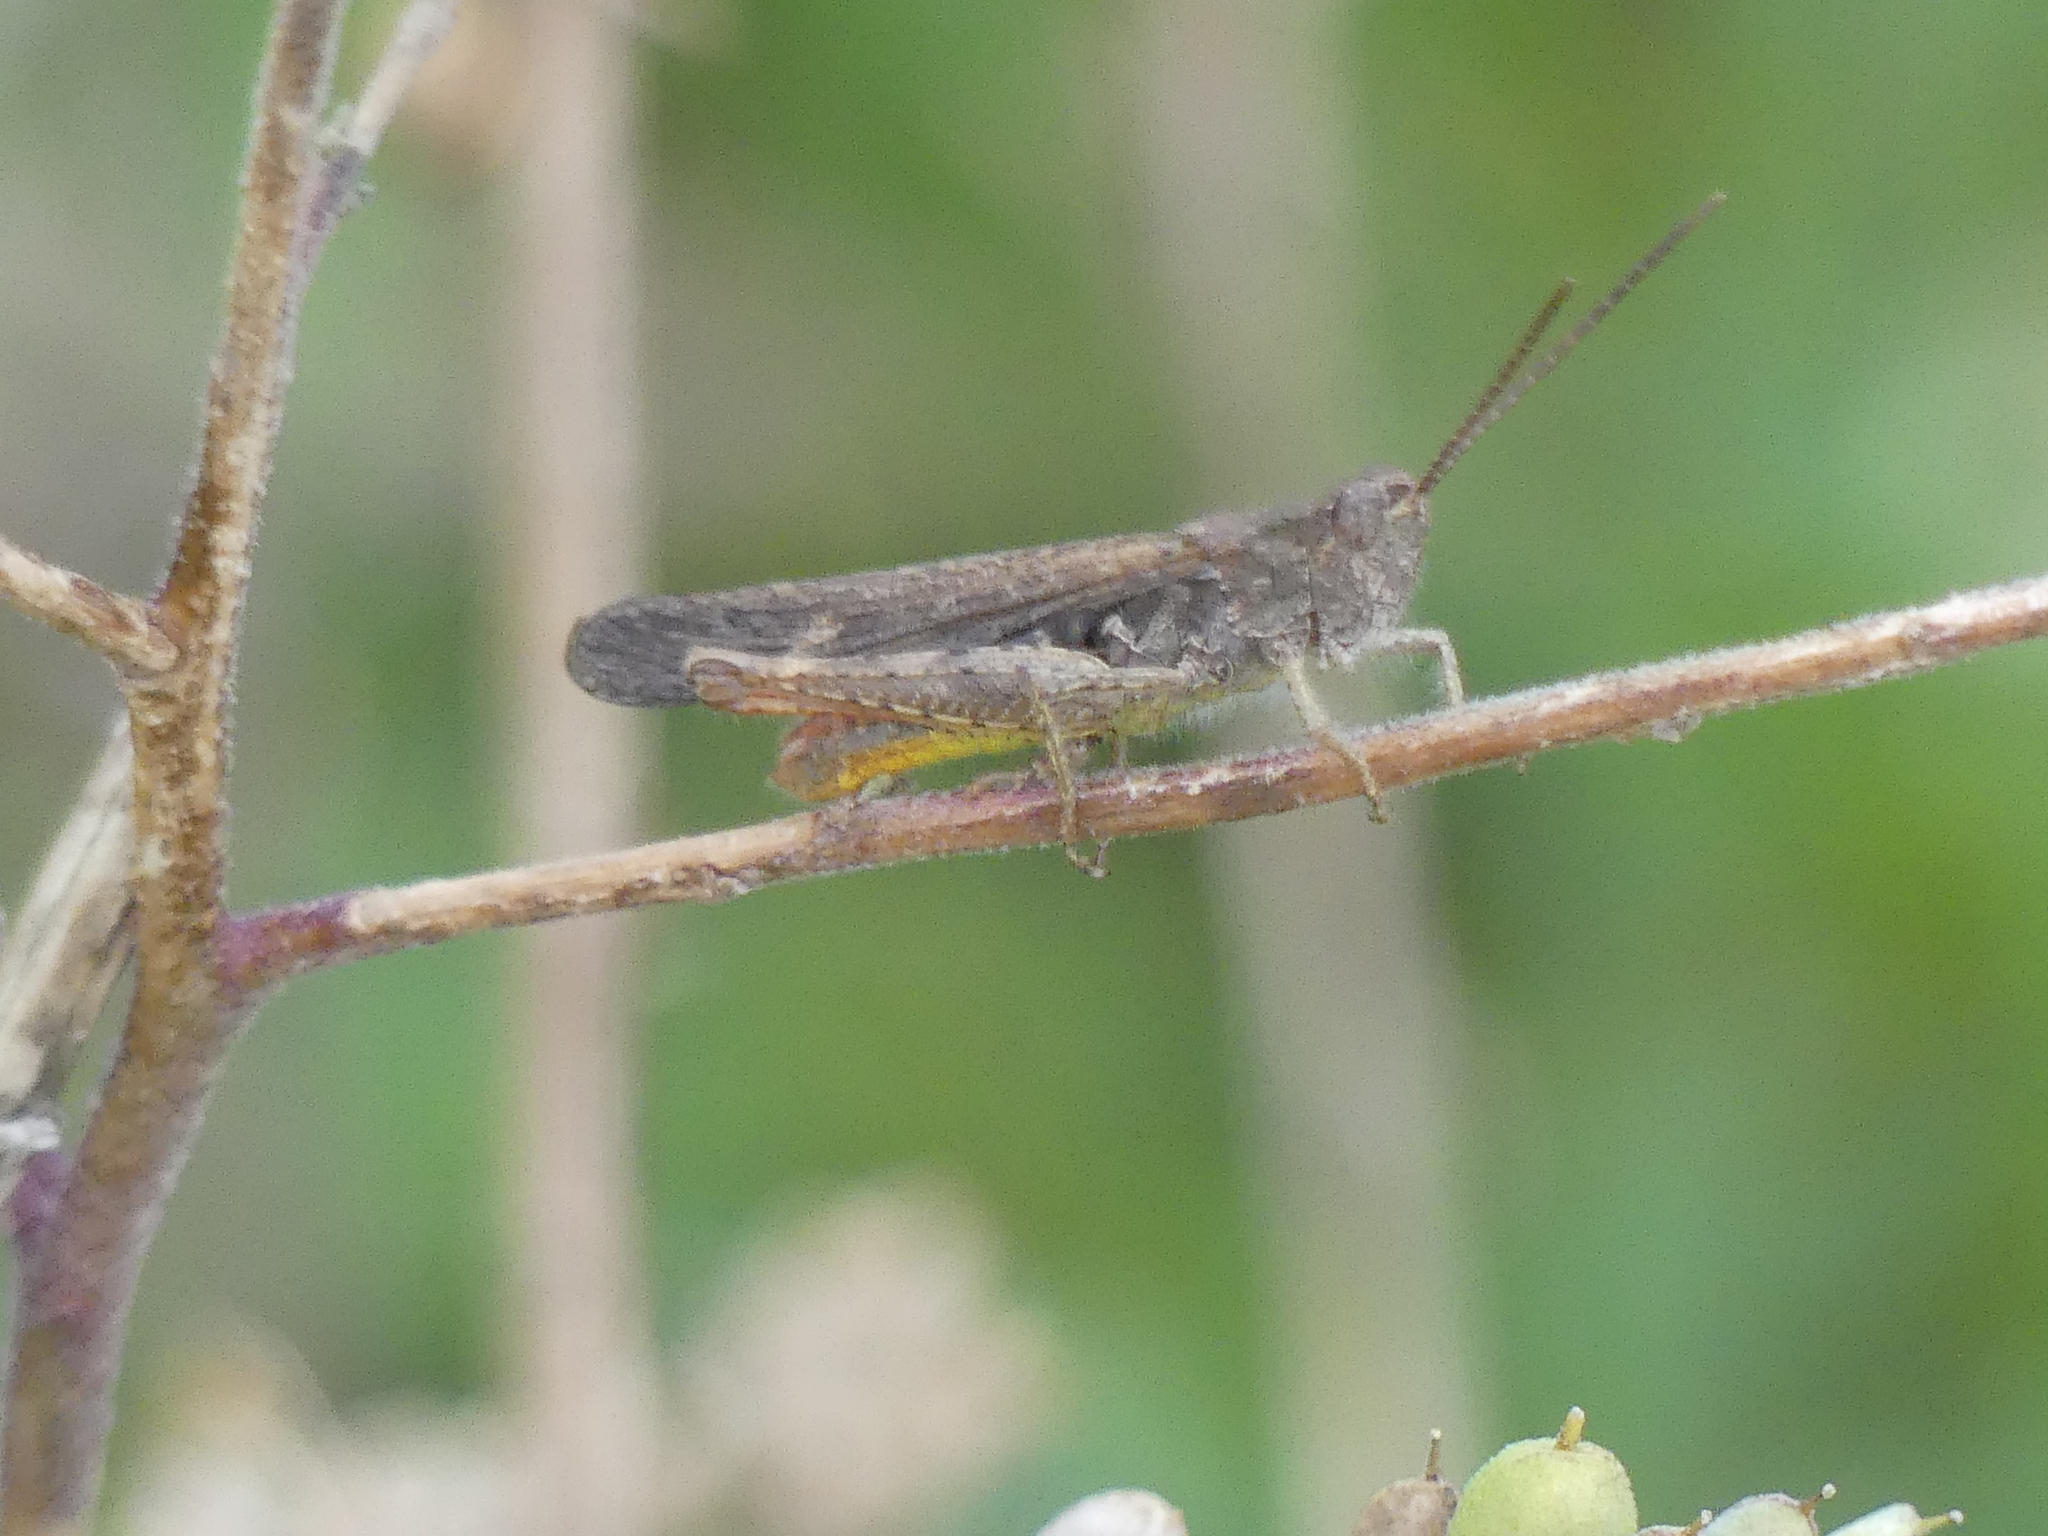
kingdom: Animalia
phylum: Arthropoda
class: Insecta
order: Orthoptera
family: Acrididae
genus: Chorthippus
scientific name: Chorthippus brunneus
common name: Field grasshopper
